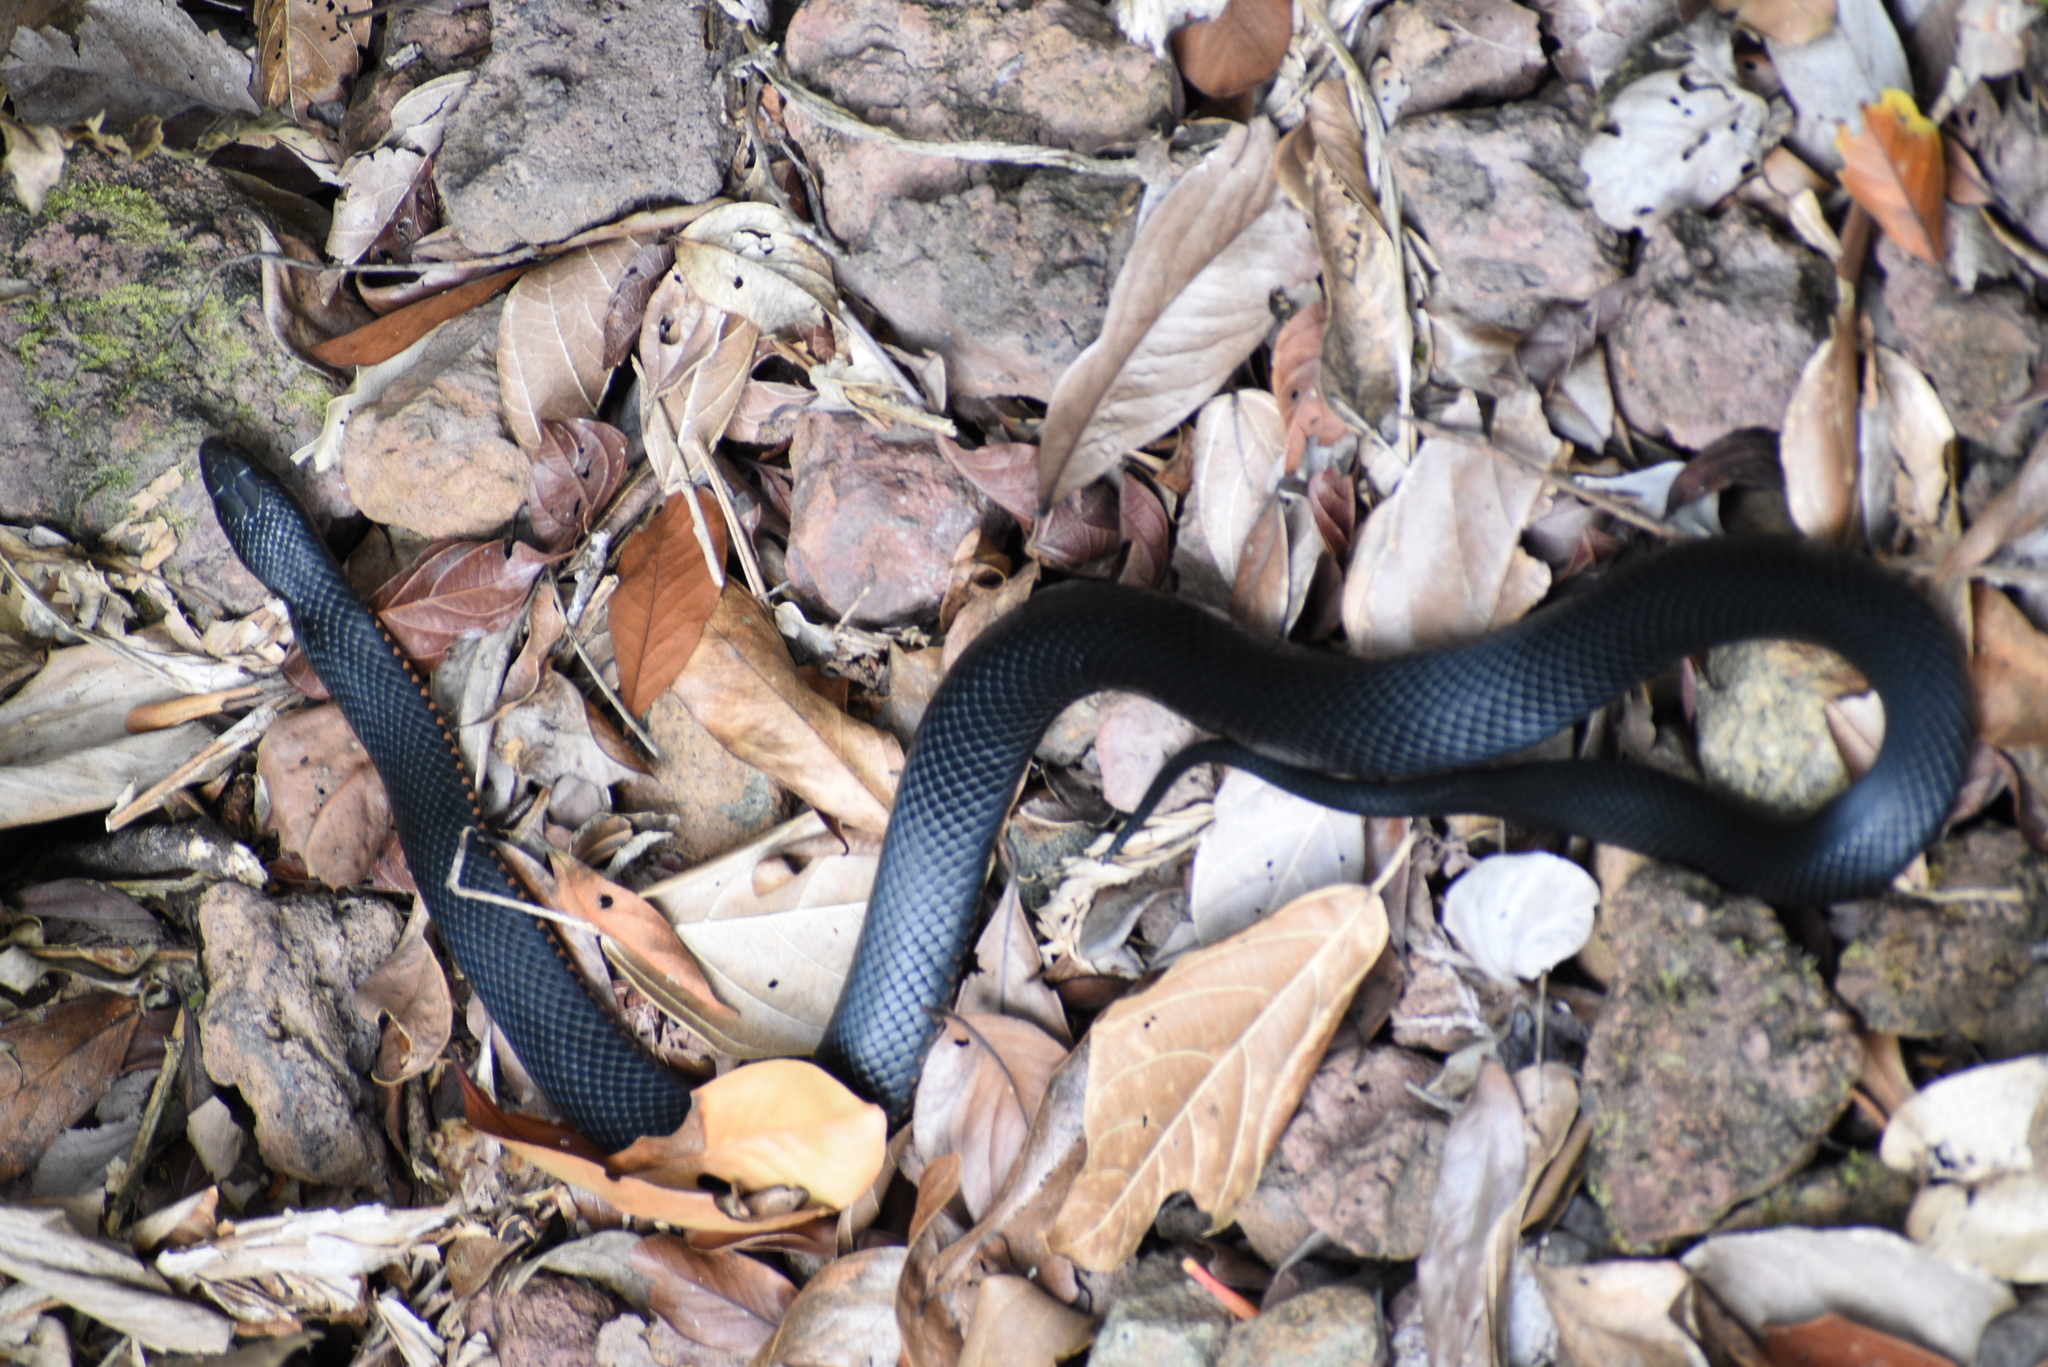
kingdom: Animalia
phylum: Chordata
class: Squamata
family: Elapidae
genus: Pseudechis
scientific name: Pseudechis porphyriacus
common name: Australian black snake
